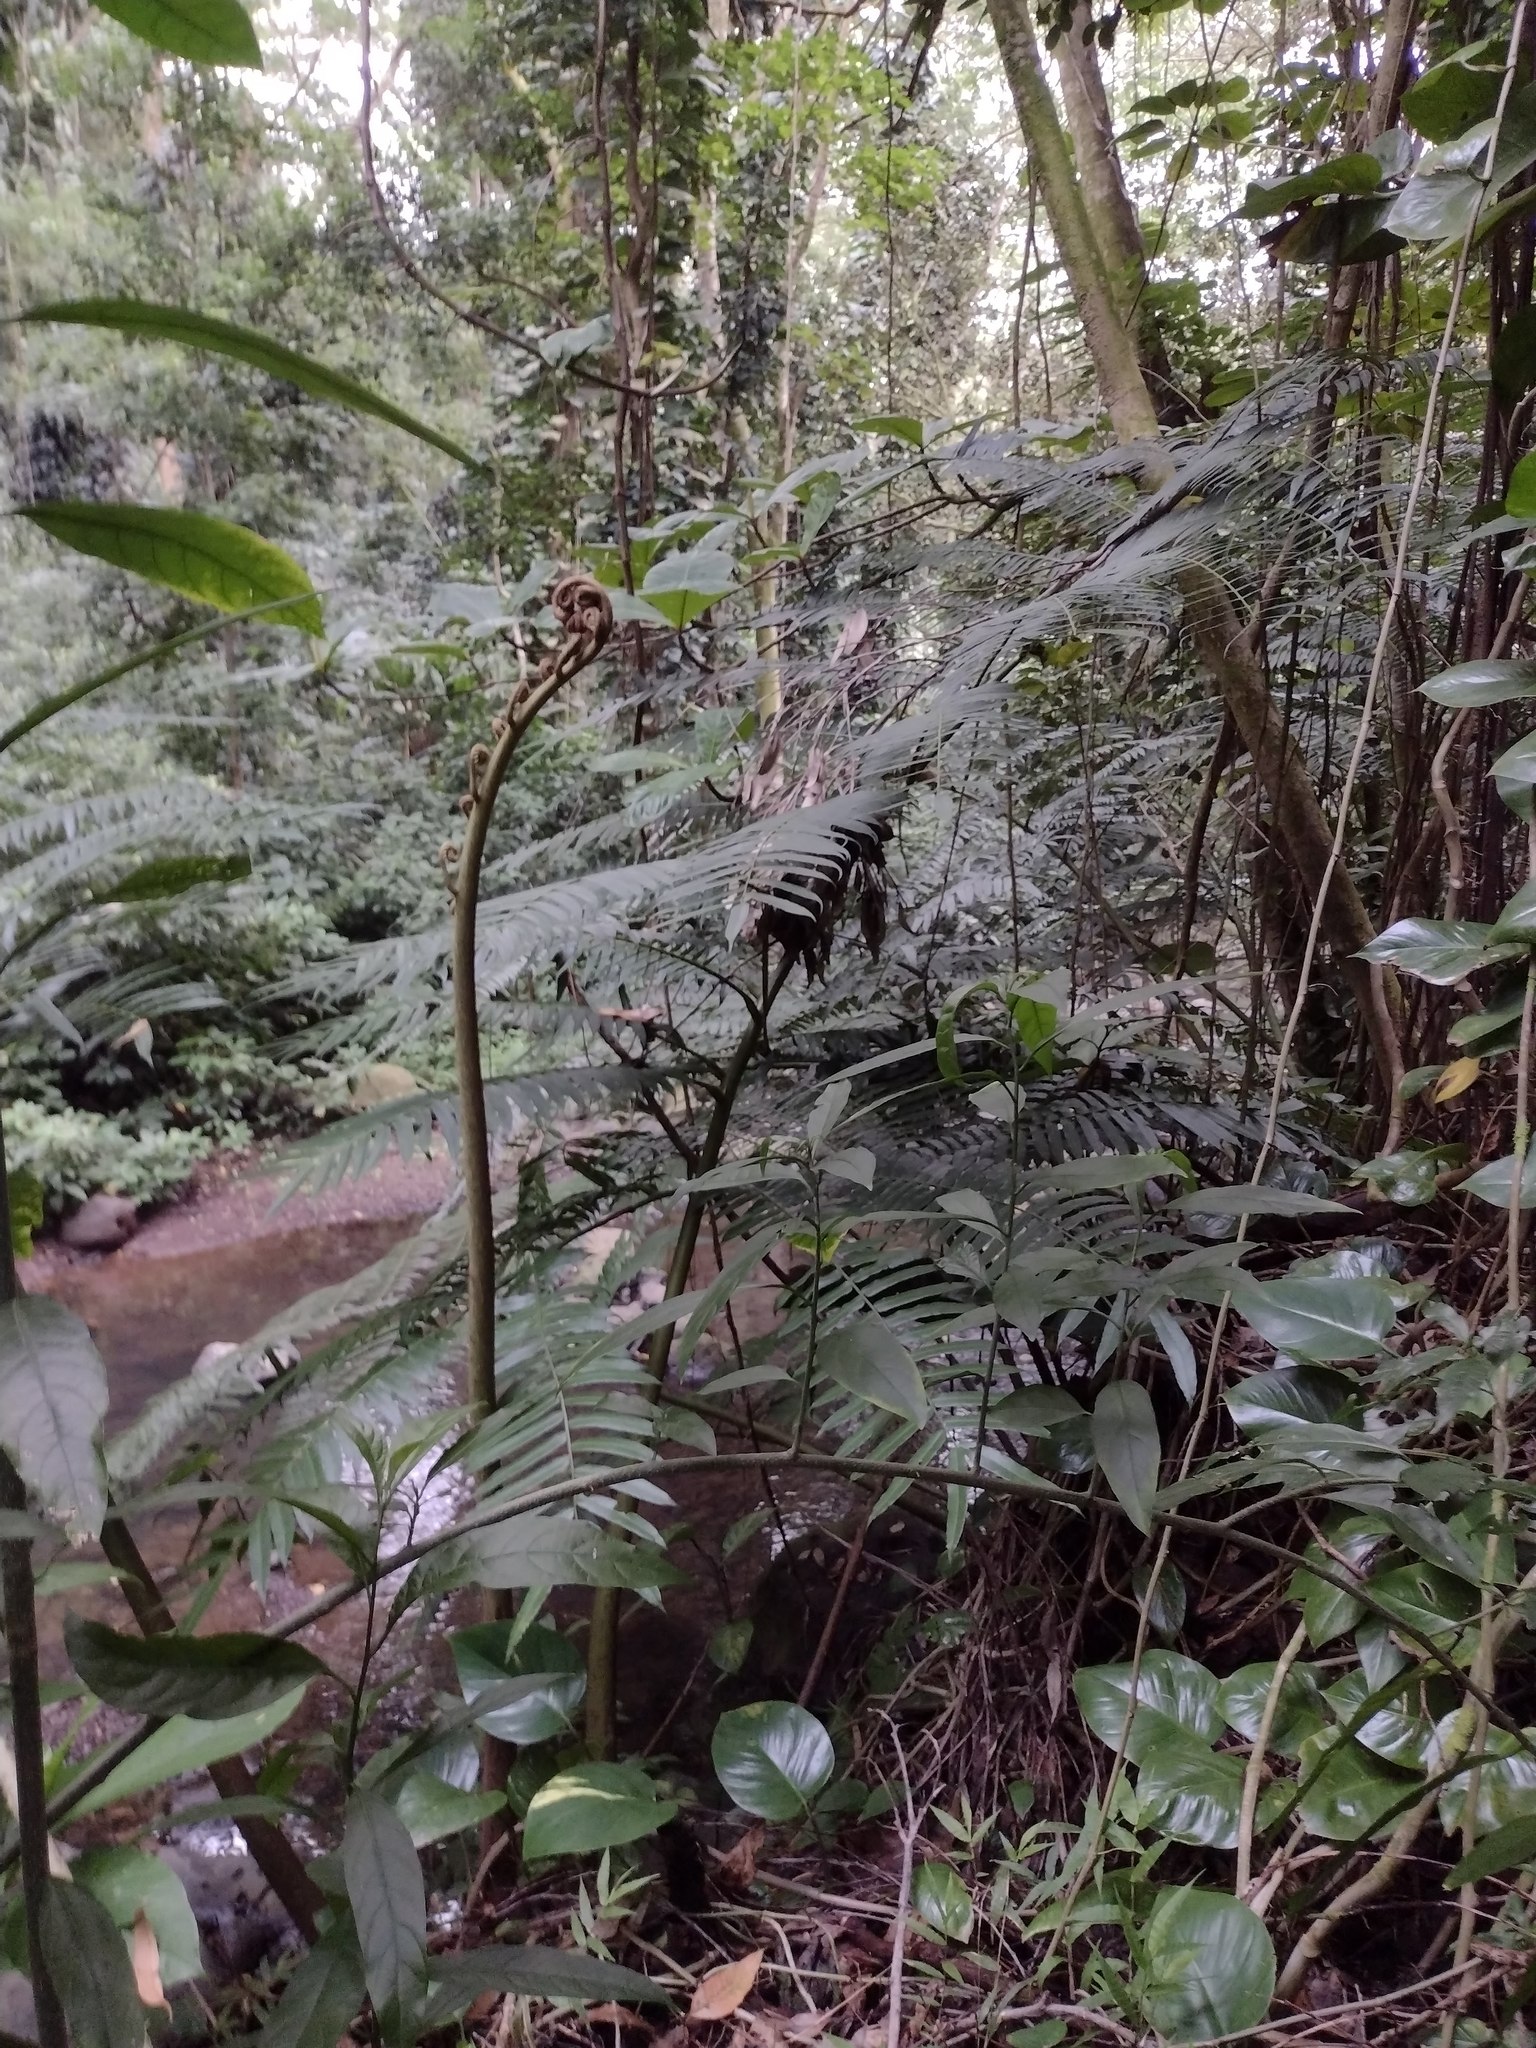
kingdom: Plantae
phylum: Tracheophyta
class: Polypodiopsida
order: Marattiales
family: Marattiaceae
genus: Angiopteris
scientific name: Angiopteris evecta
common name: Mule's-foot fern
